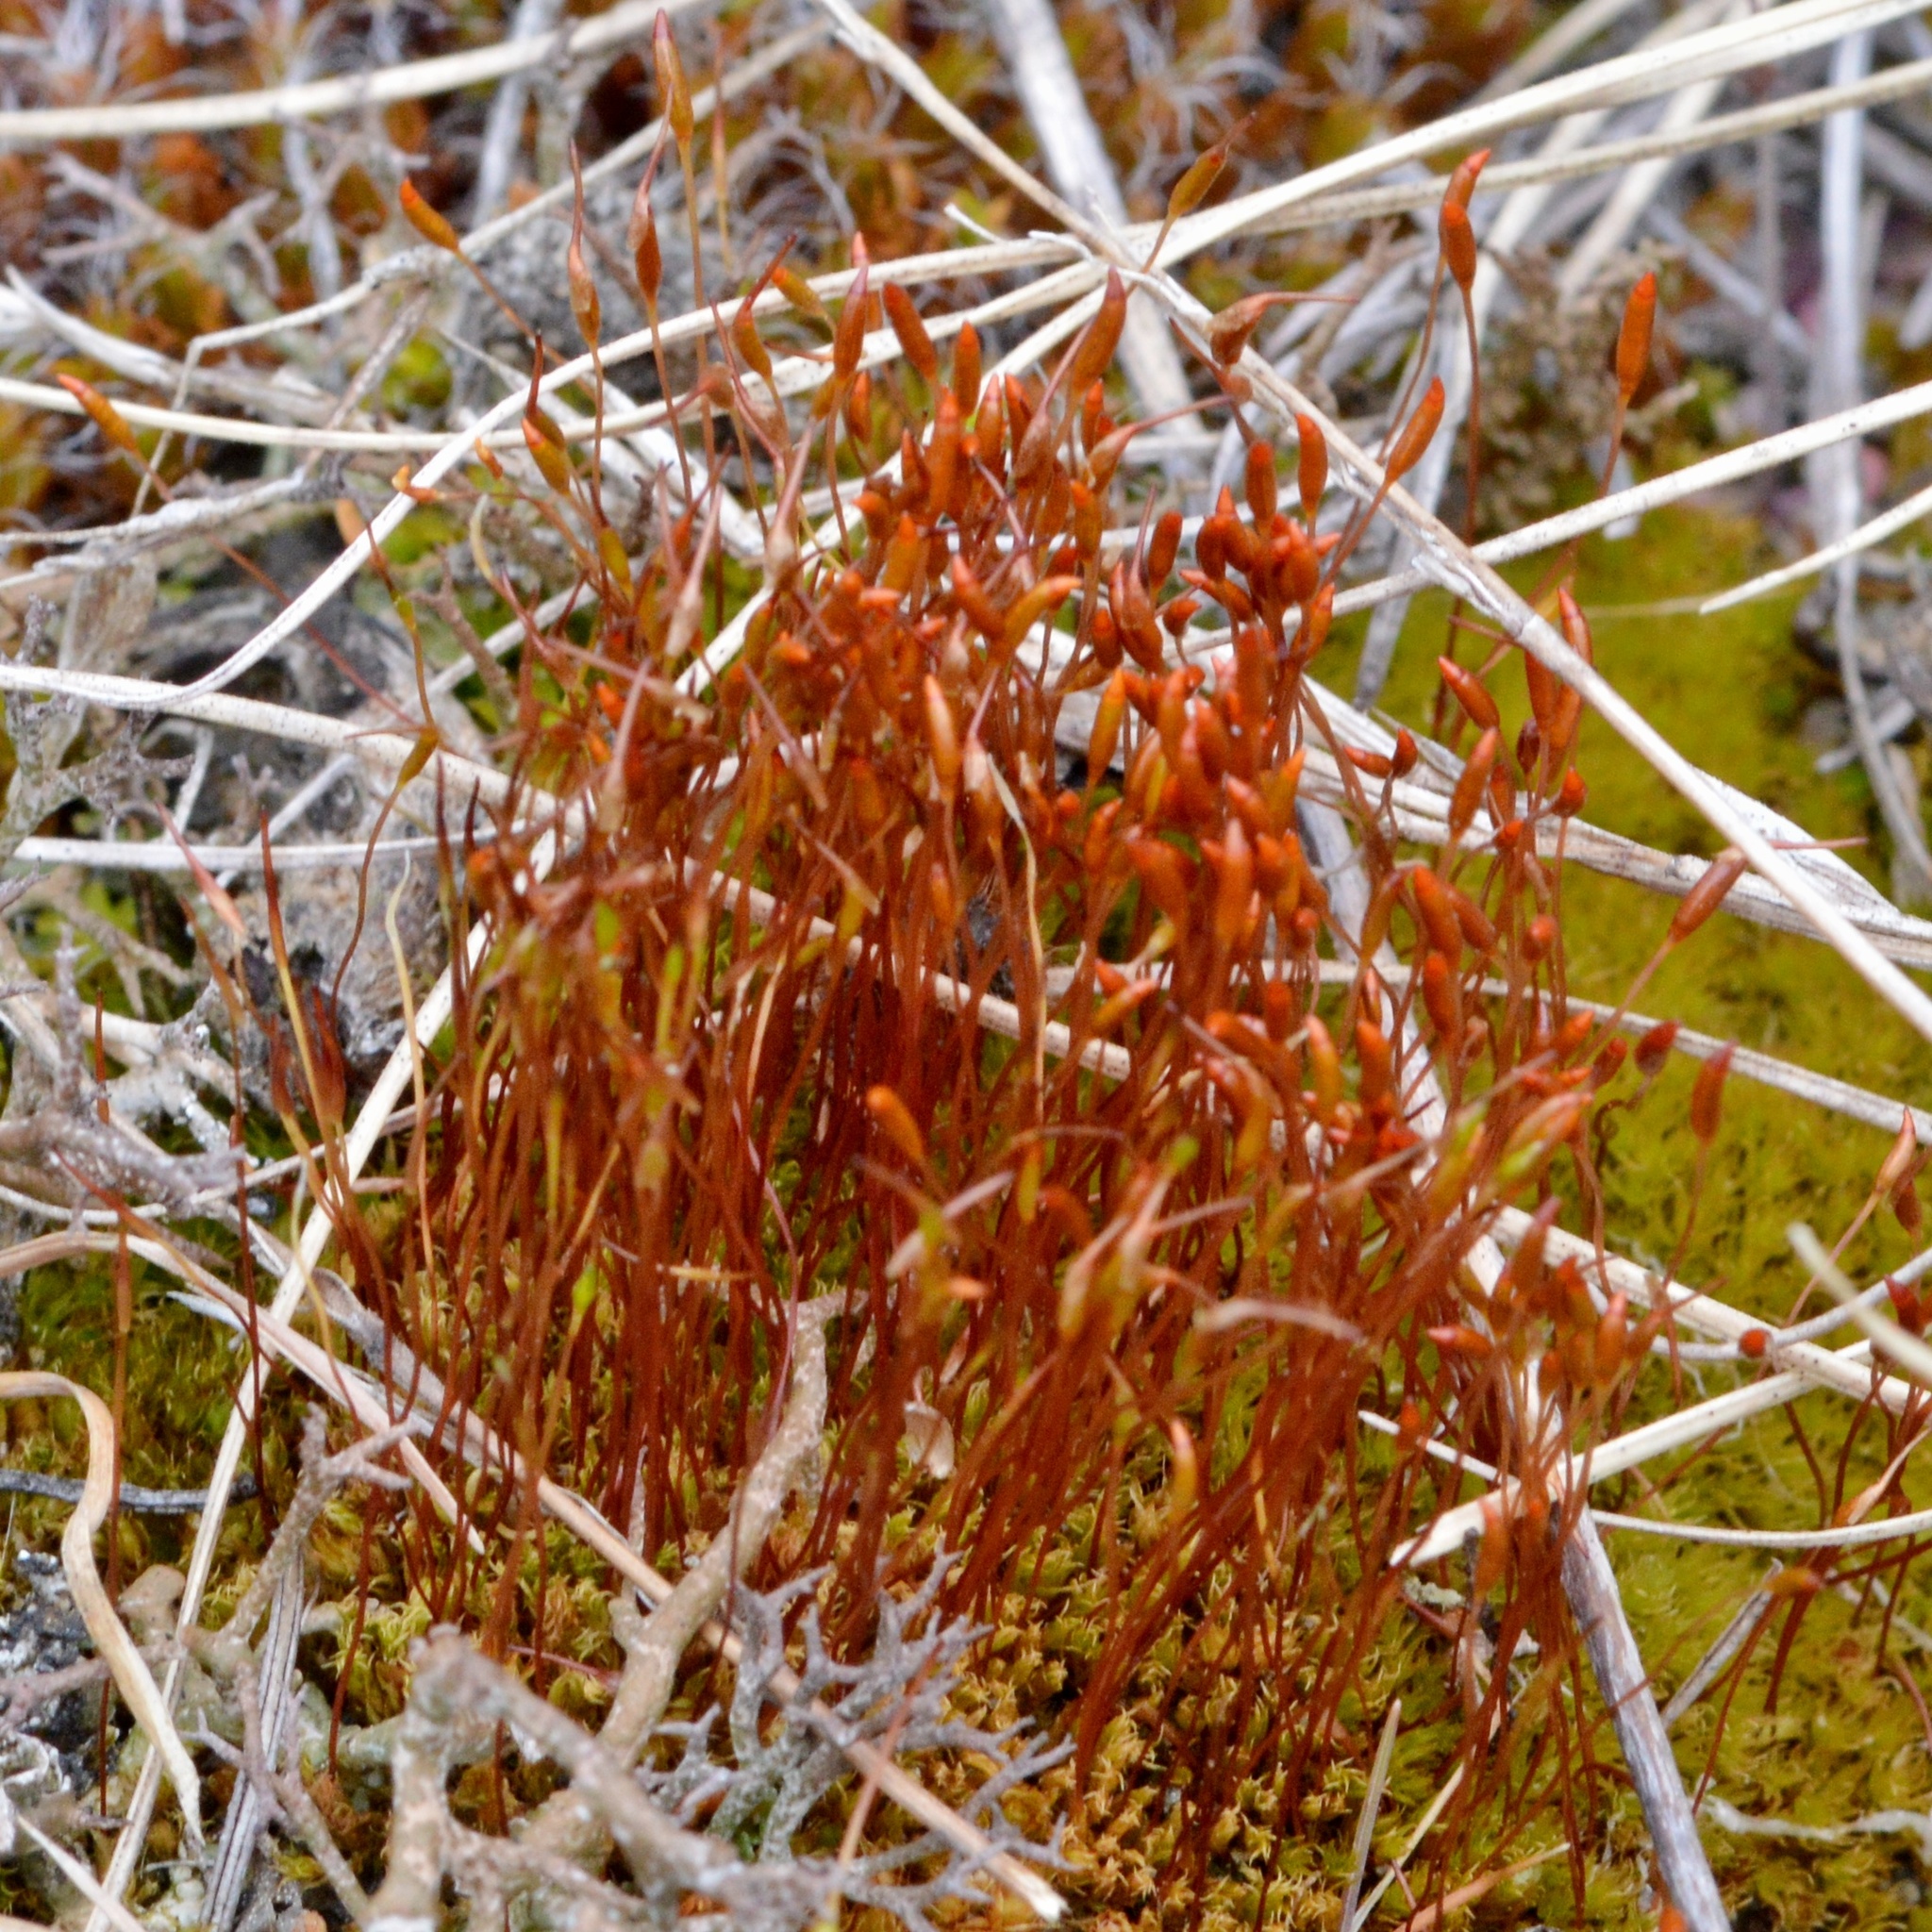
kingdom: Plantae
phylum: Bryophyta
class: Bryopsida
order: Dicranales
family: Ditrichaceae
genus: Ceratodon
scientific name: Ceratodon purpureus
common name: Redshank
